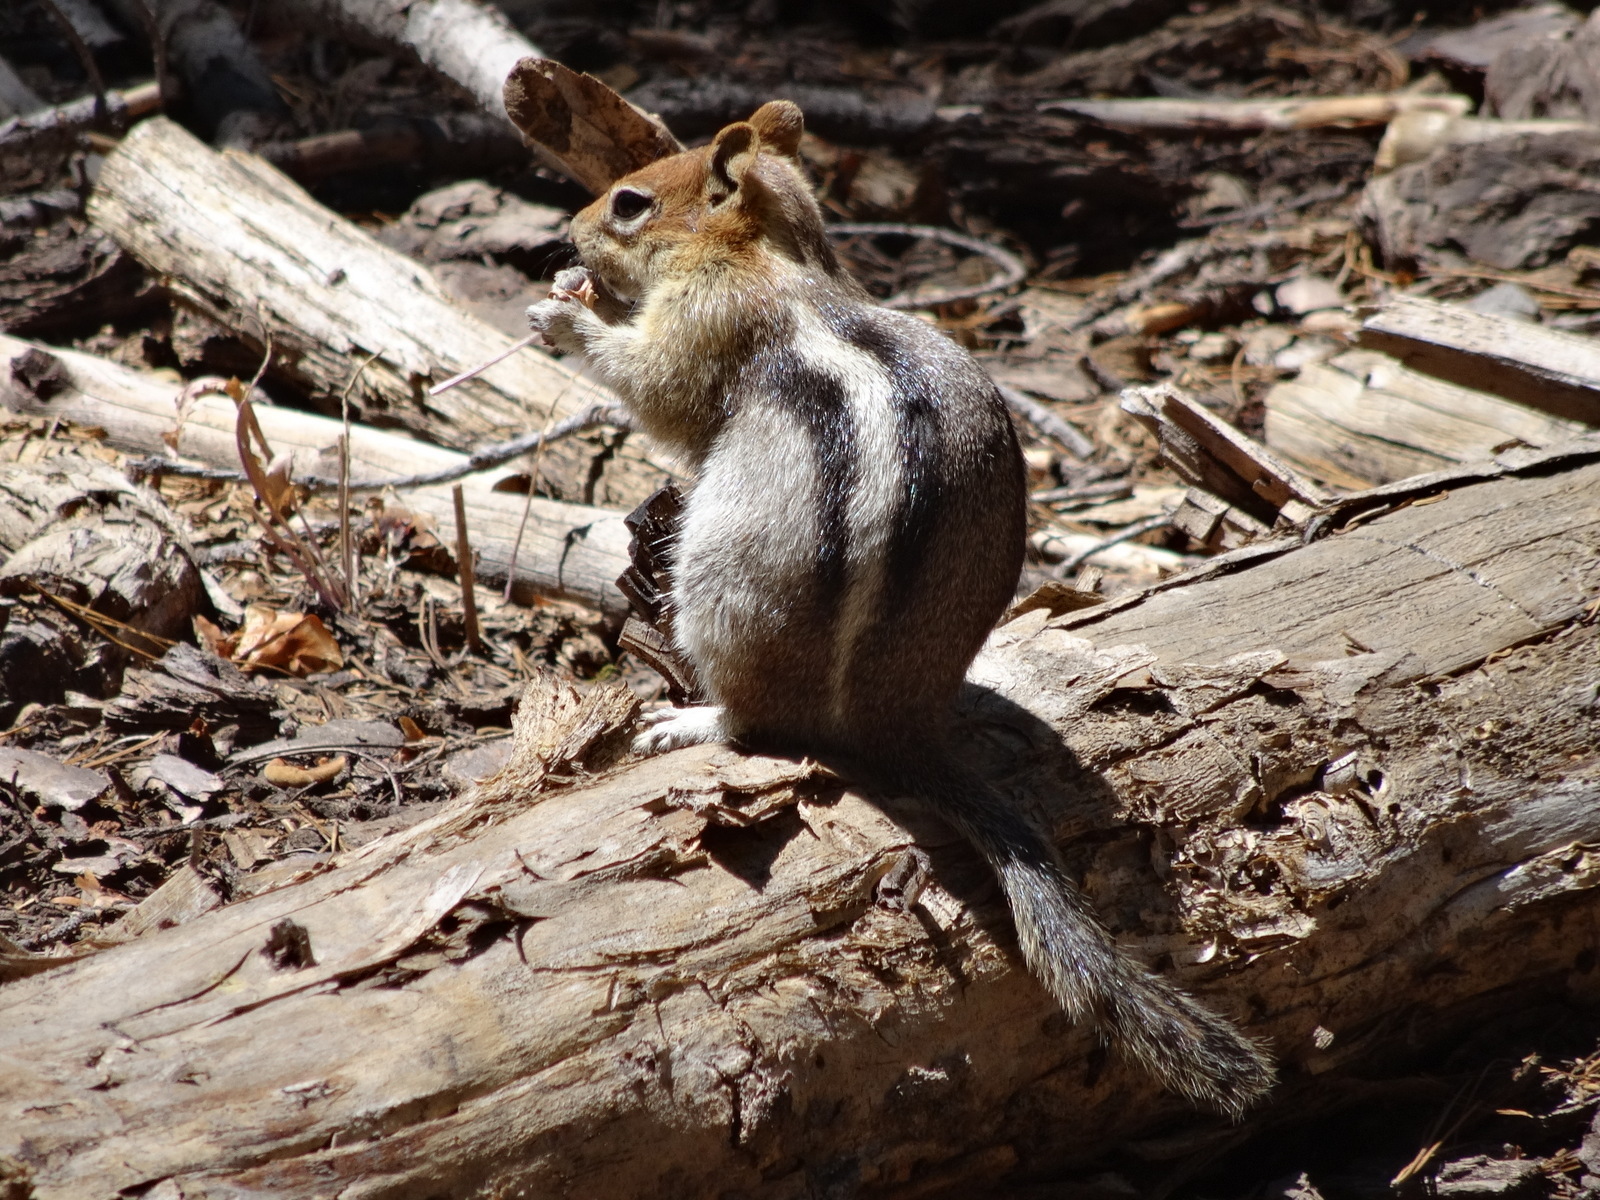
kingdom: Animalia
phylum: Chordata
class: Mammalia
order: Rodentia
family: Sciuridae
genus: Callospermophilus
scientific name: Callospermophilus lateralis
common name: Golden-mantled ground squirrel
